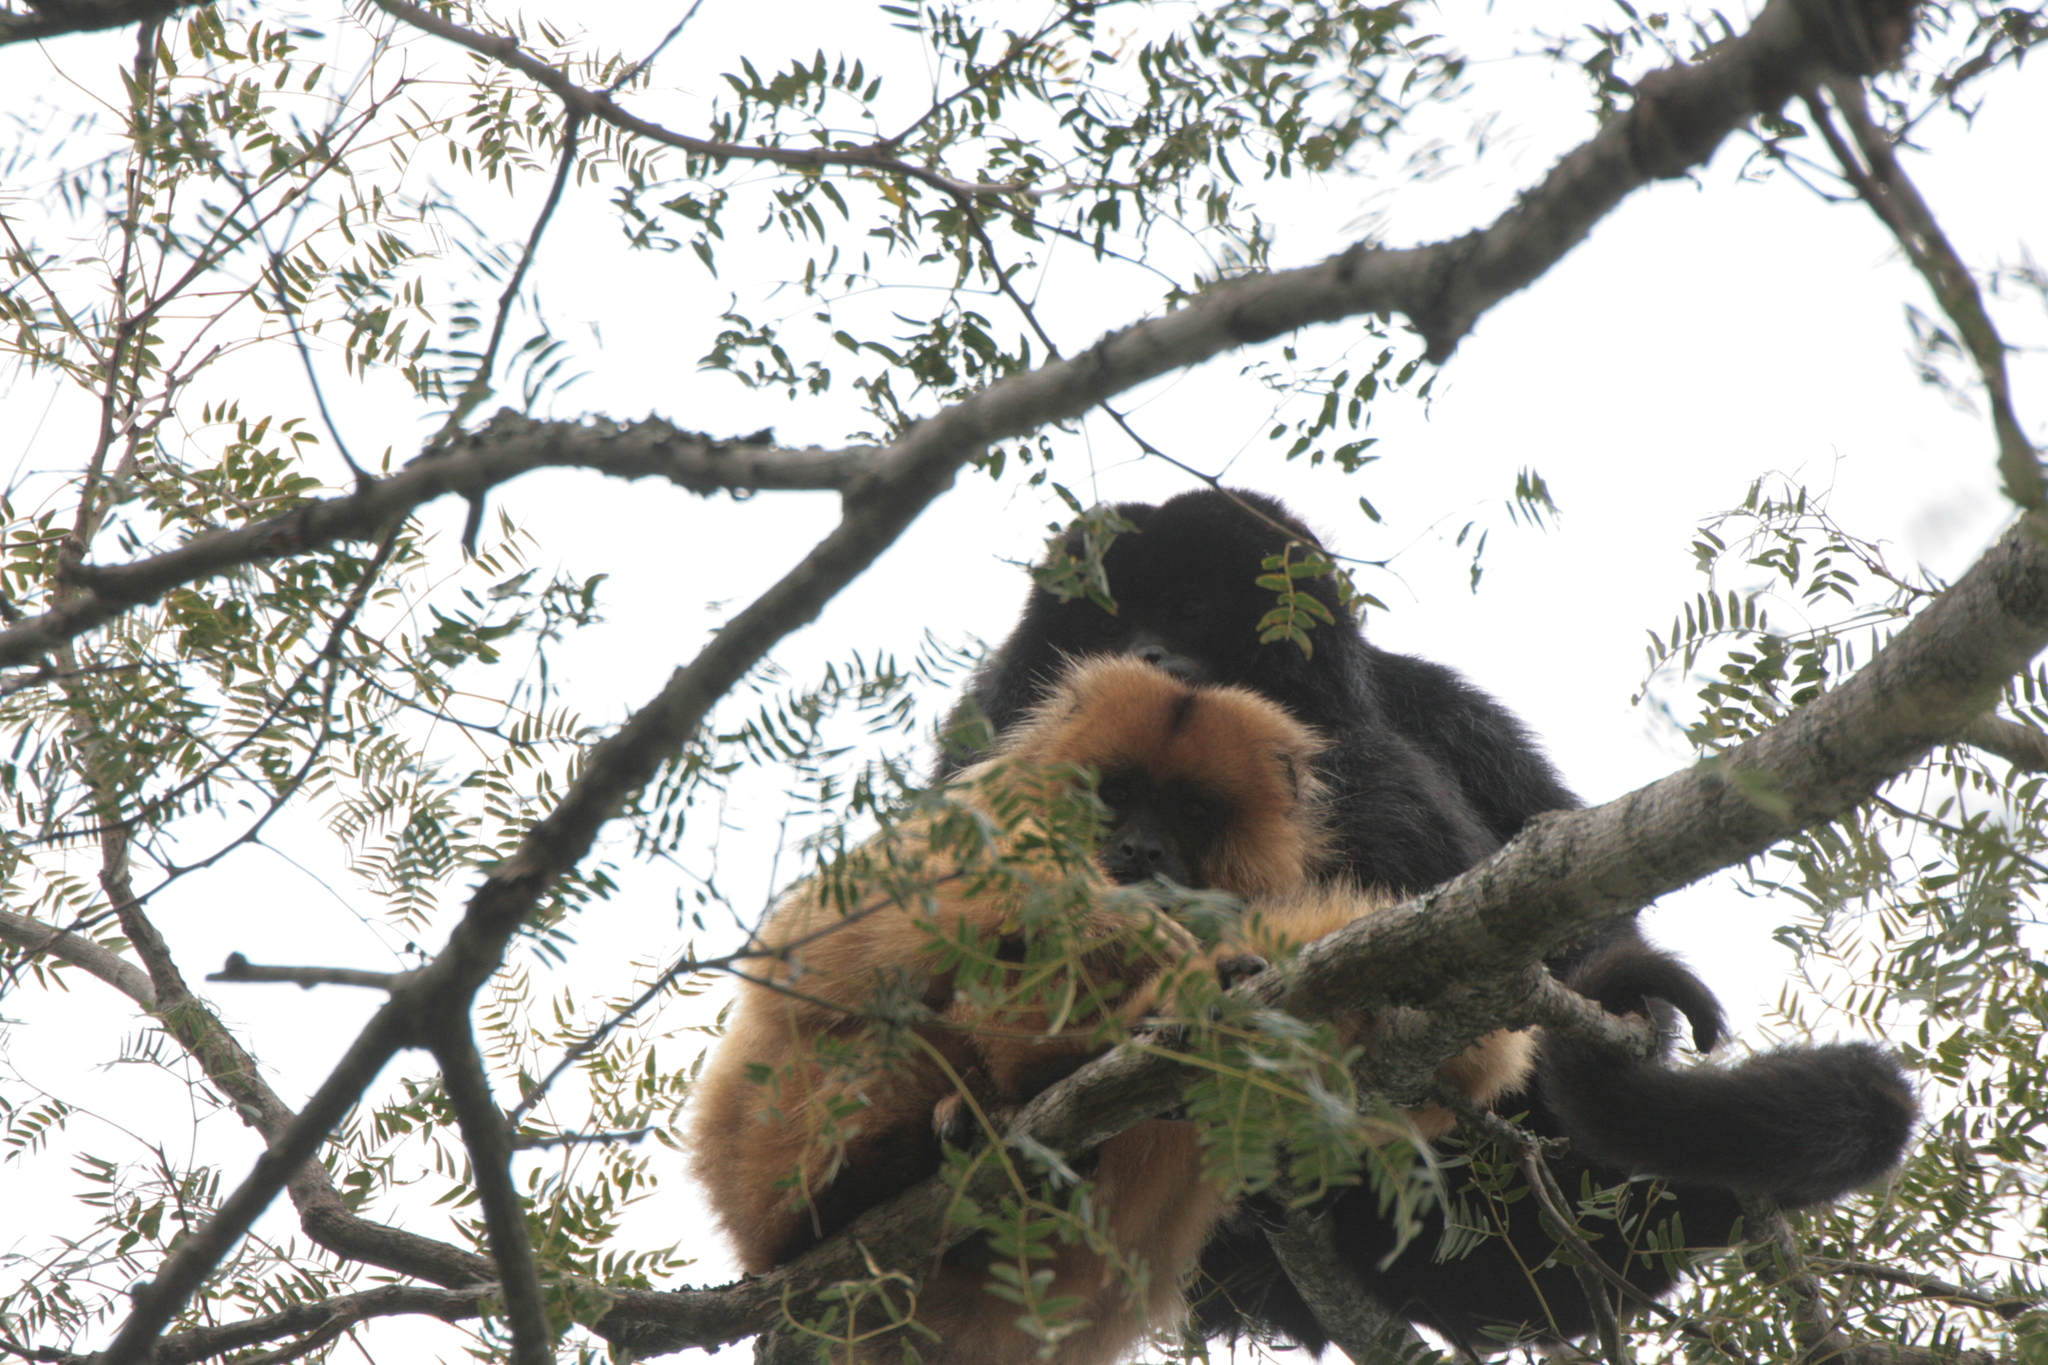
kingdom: Animalia
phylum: Chordata
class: Mammalia
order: Primates
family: Atelidae
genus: Alouatta
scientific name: Alouatta caraya
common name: Black howler
